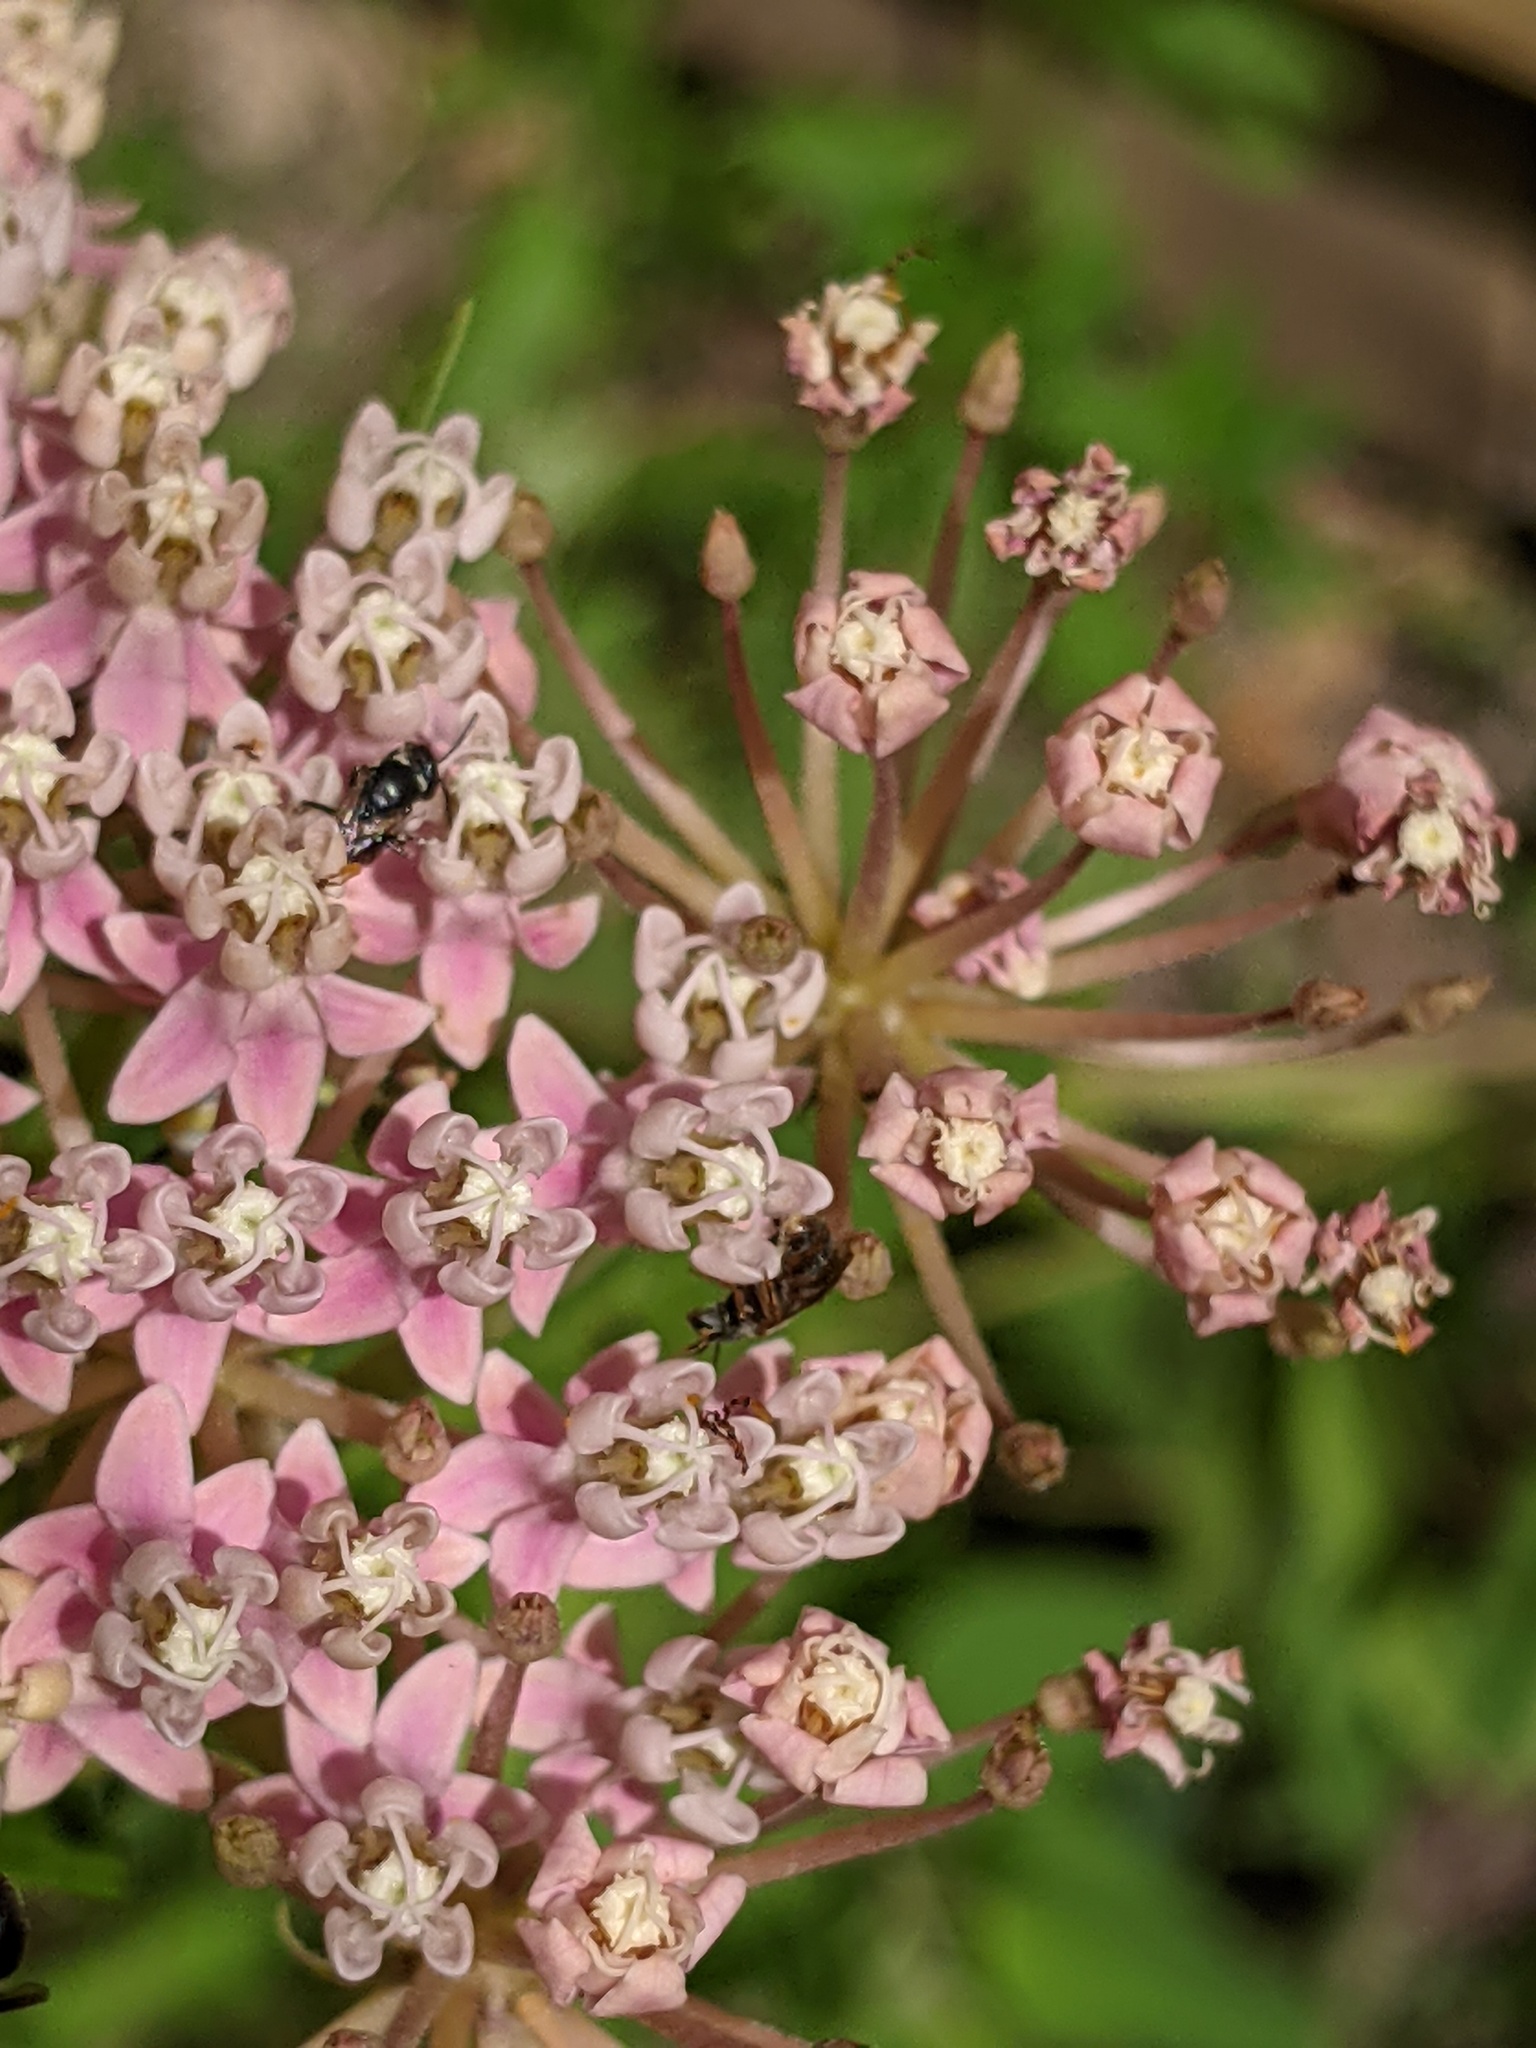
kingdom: Animalia
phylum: Arthropoda
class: Insecta
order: Hymenoptera
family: Halictidae
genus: Dialictus
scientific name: Dialictus
